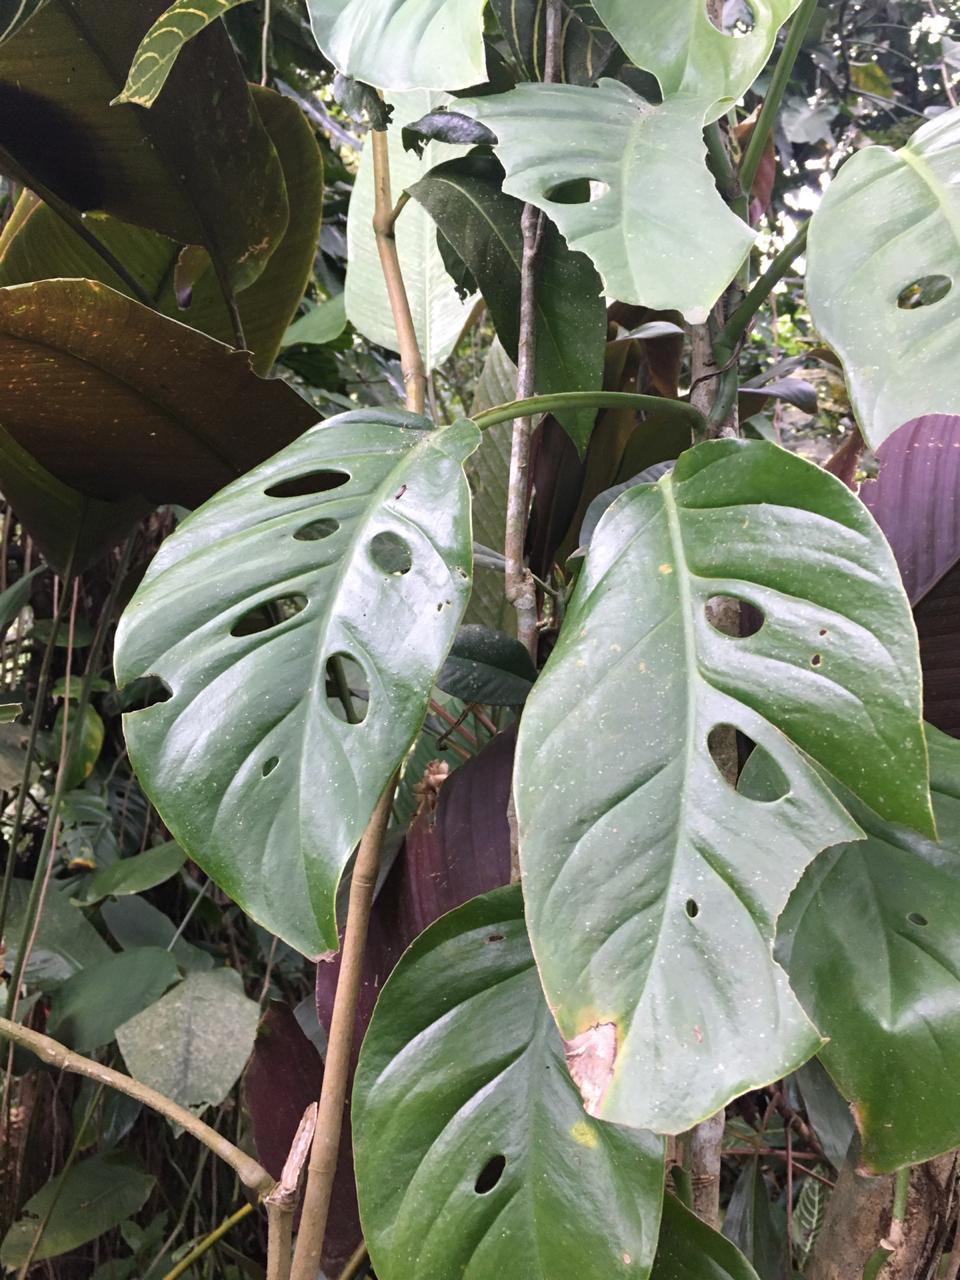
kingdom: Plantae
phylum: Tracheophyta
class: Liliopsida
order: Alismatales
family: Araceae
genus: Monstera
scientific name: Monstera acuminata
